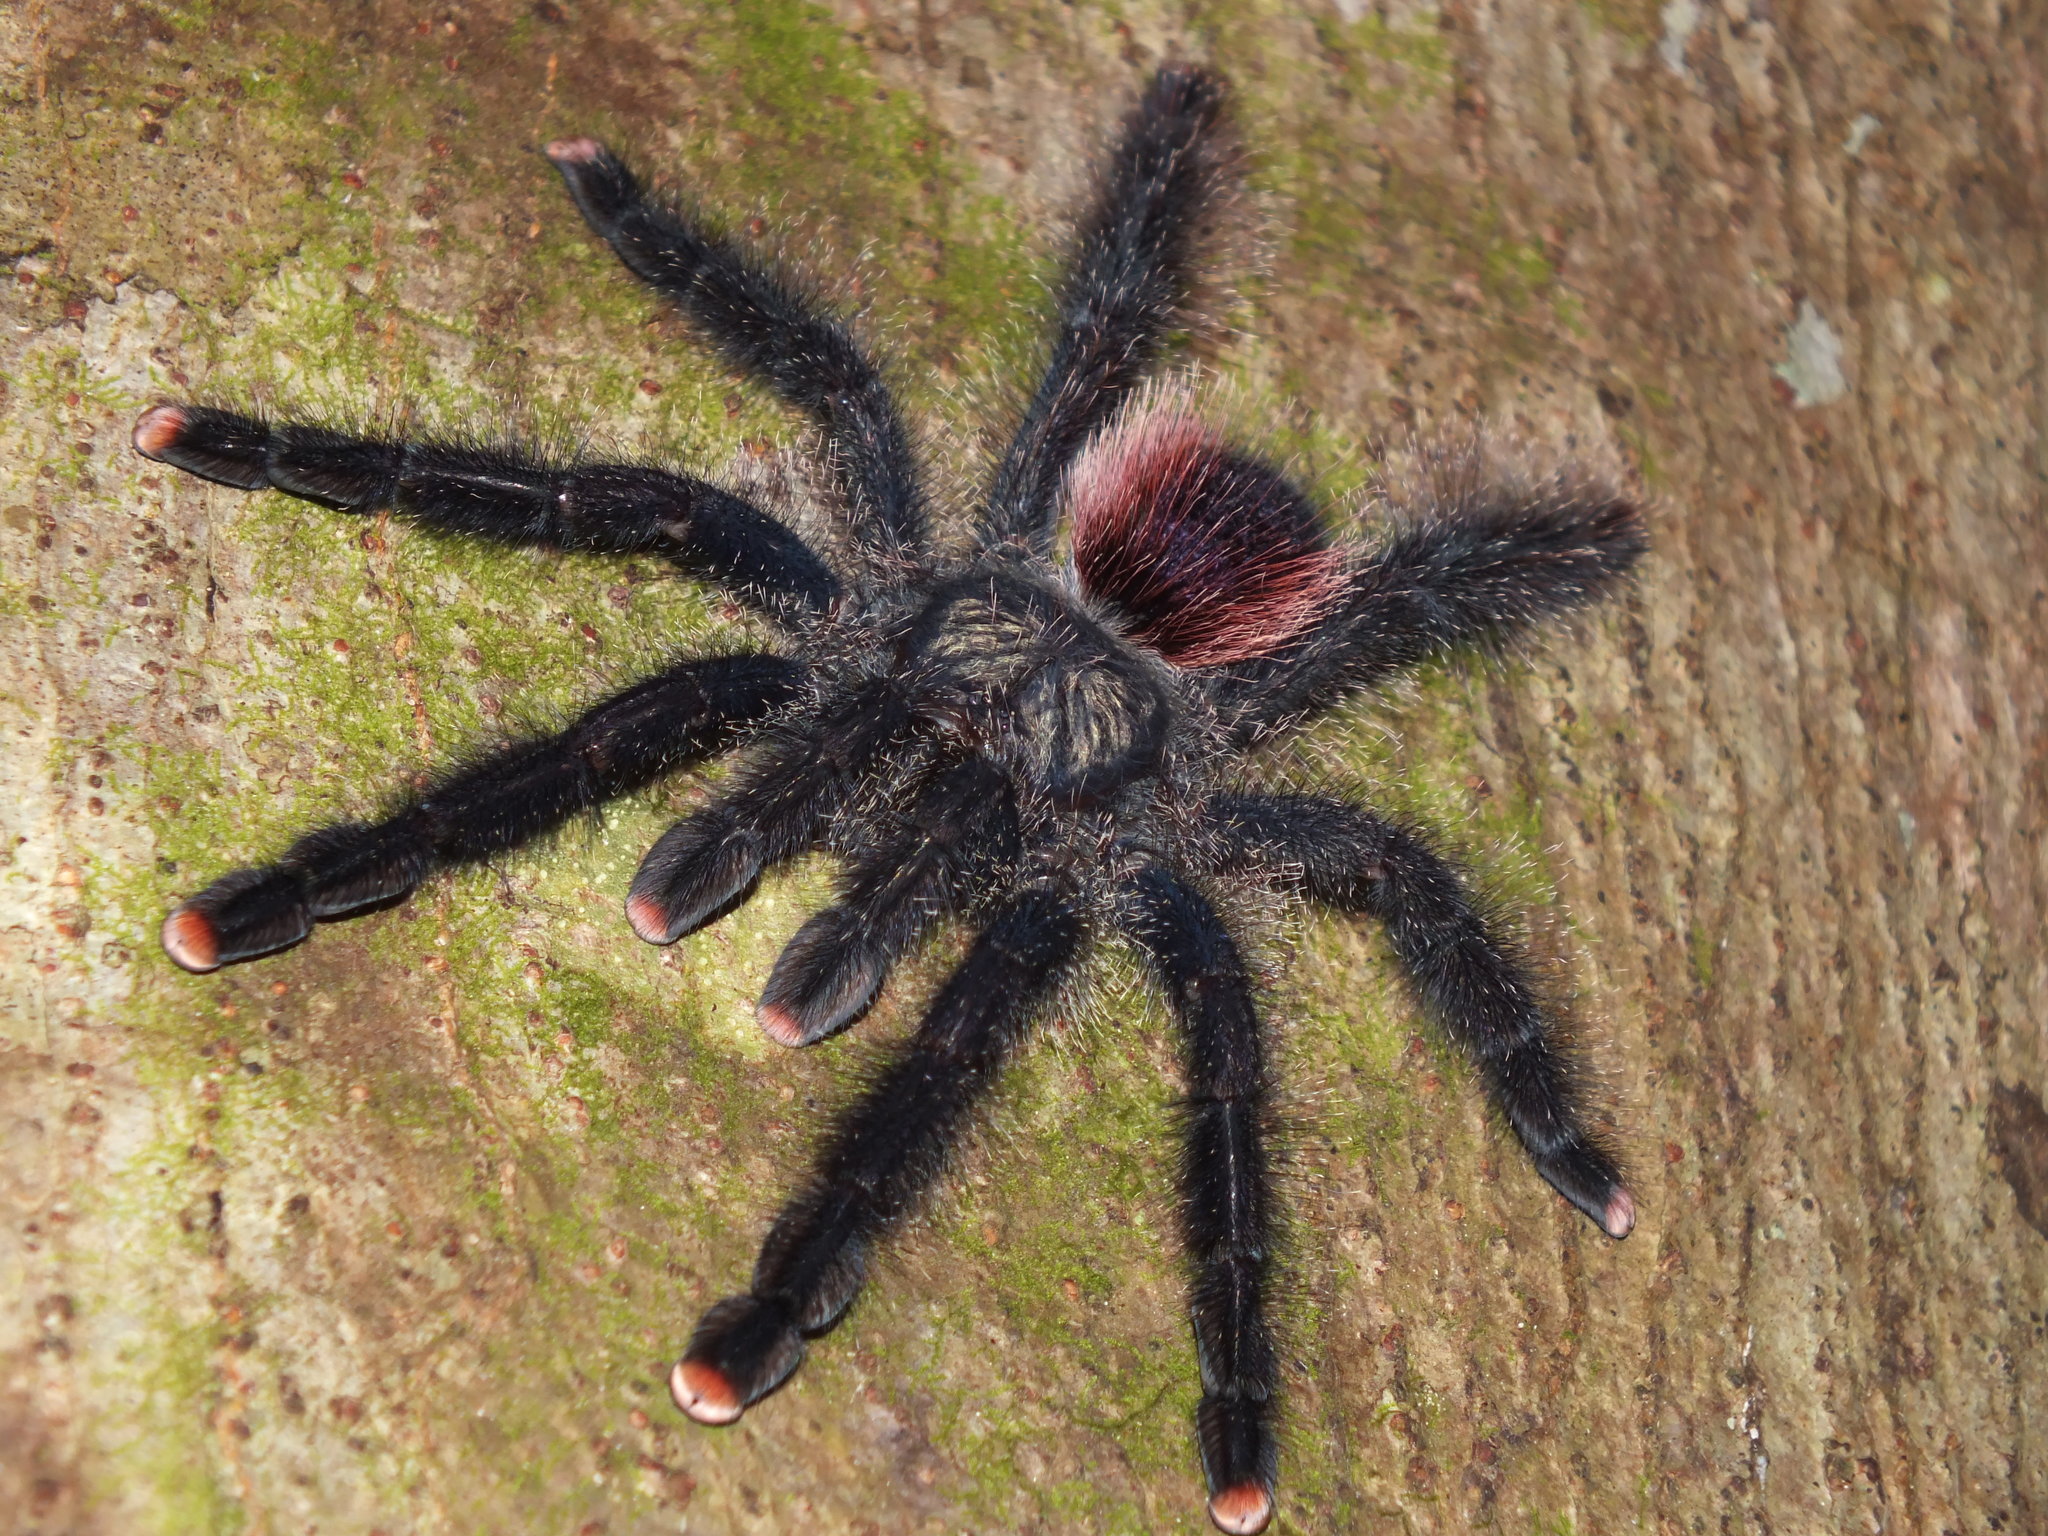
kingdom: Animalia
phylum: Arthropoda
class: Arachnida
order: Araneae
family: Theraphosidae
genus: Avicularia
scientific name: Avicularia juruensis
